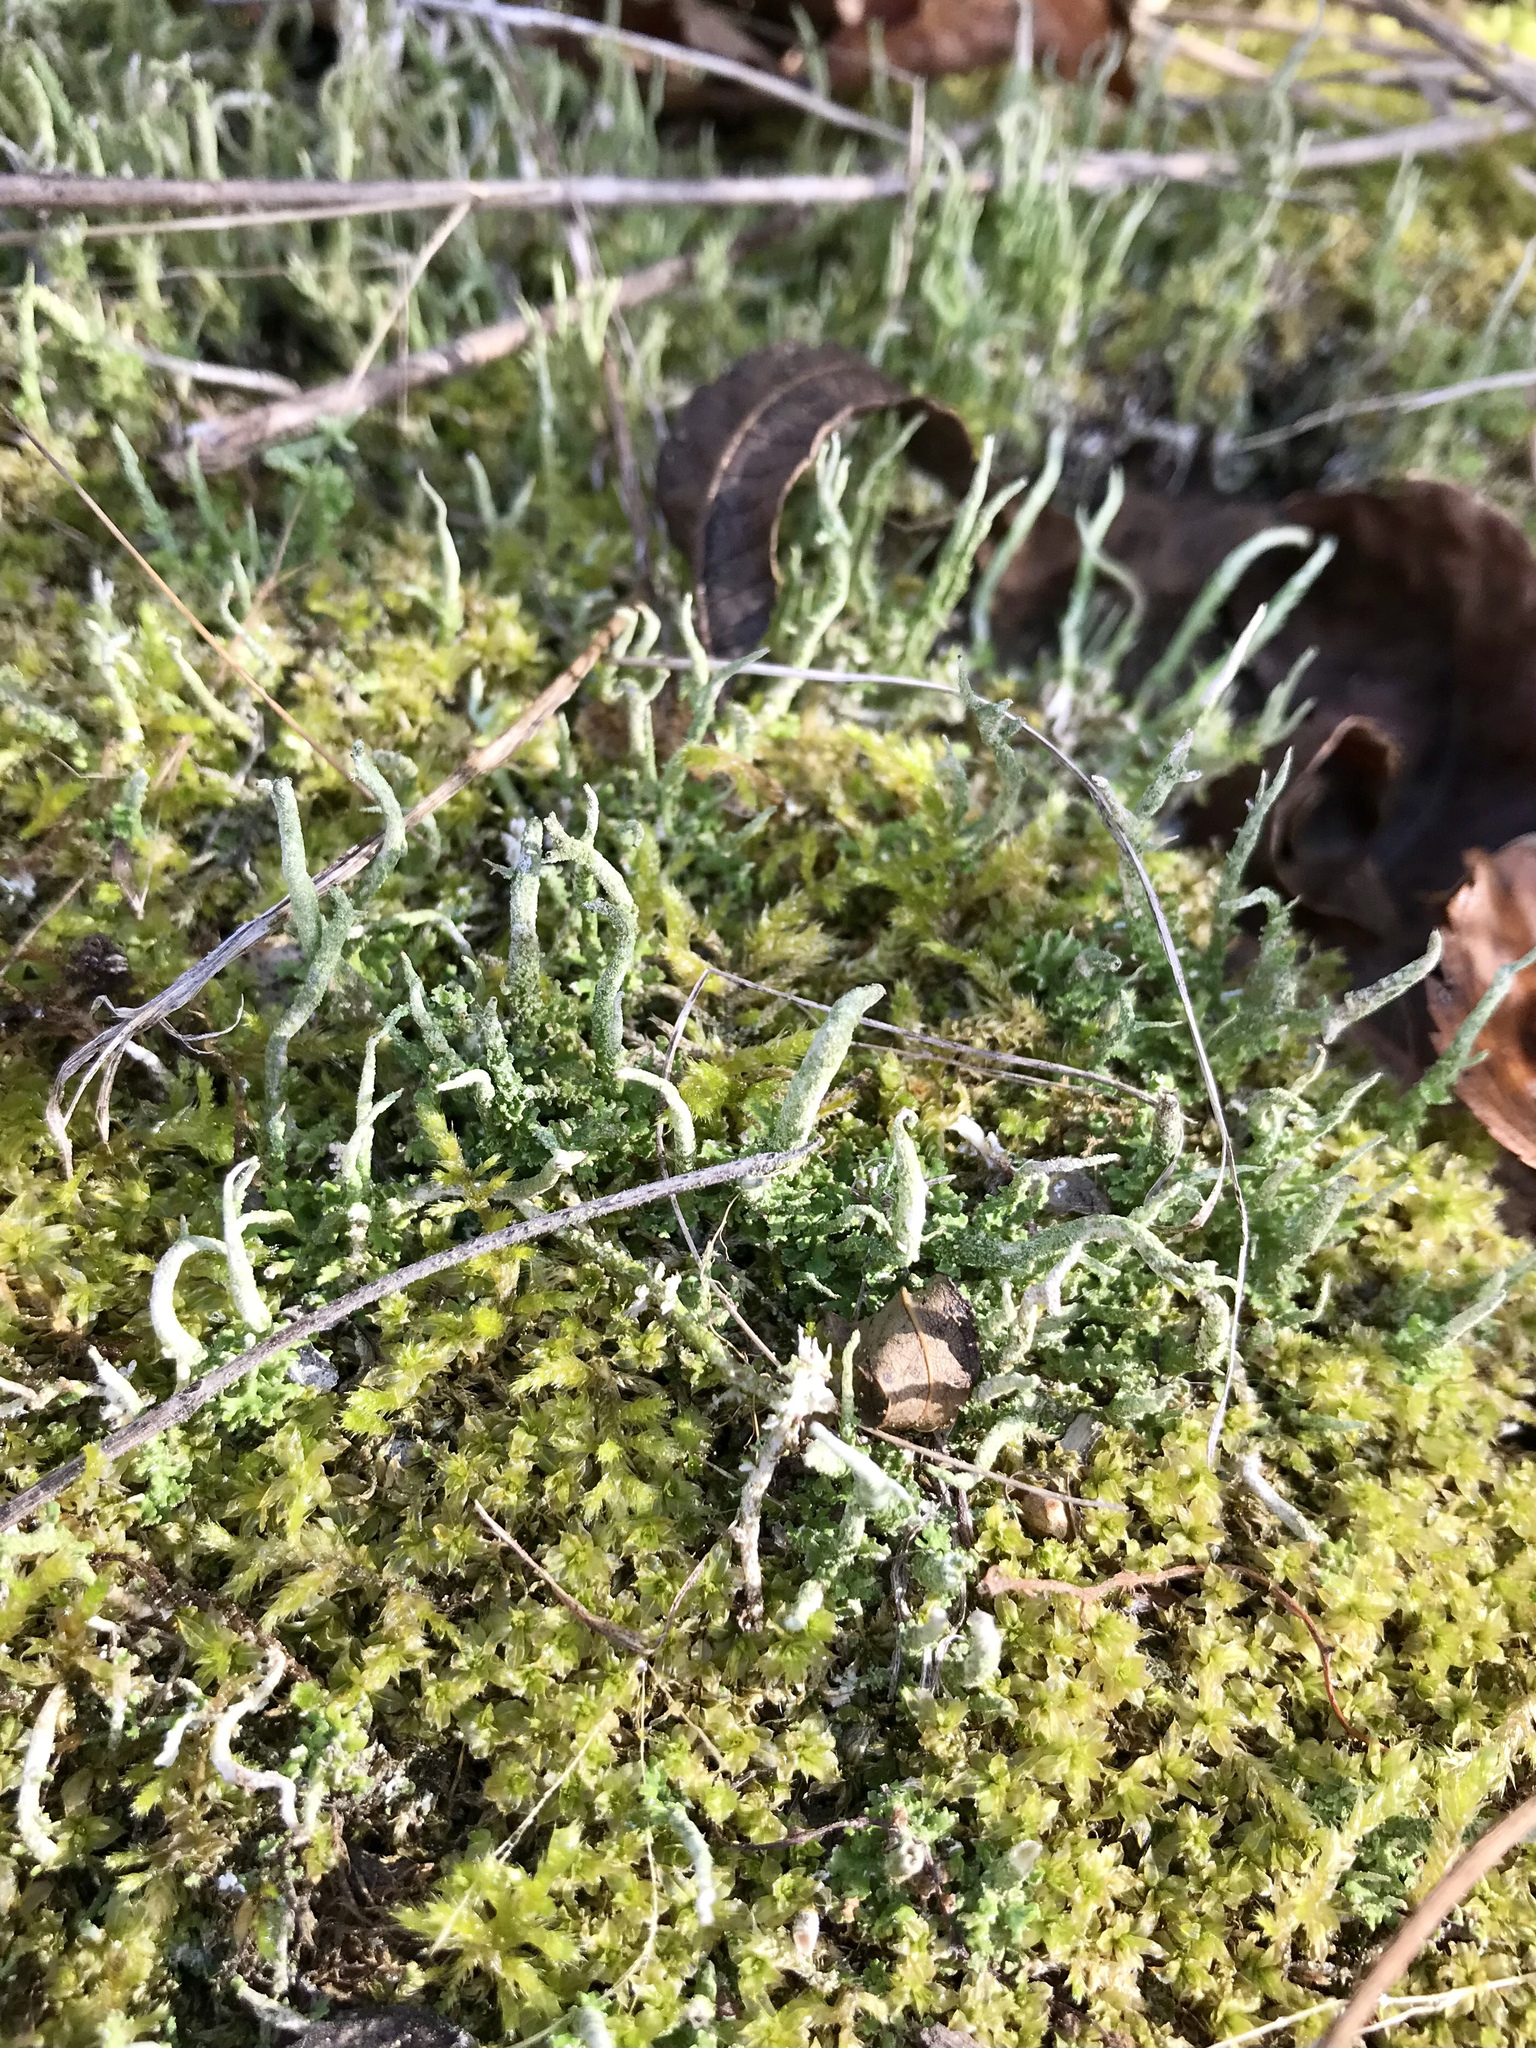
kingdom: Fungi
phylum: Ascomycota
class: Lecanoromycetes
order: Lecanorales
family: Cladoniaceae
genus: Cladonia
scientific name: Cladonia coniocraea
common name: Common powderhorn
